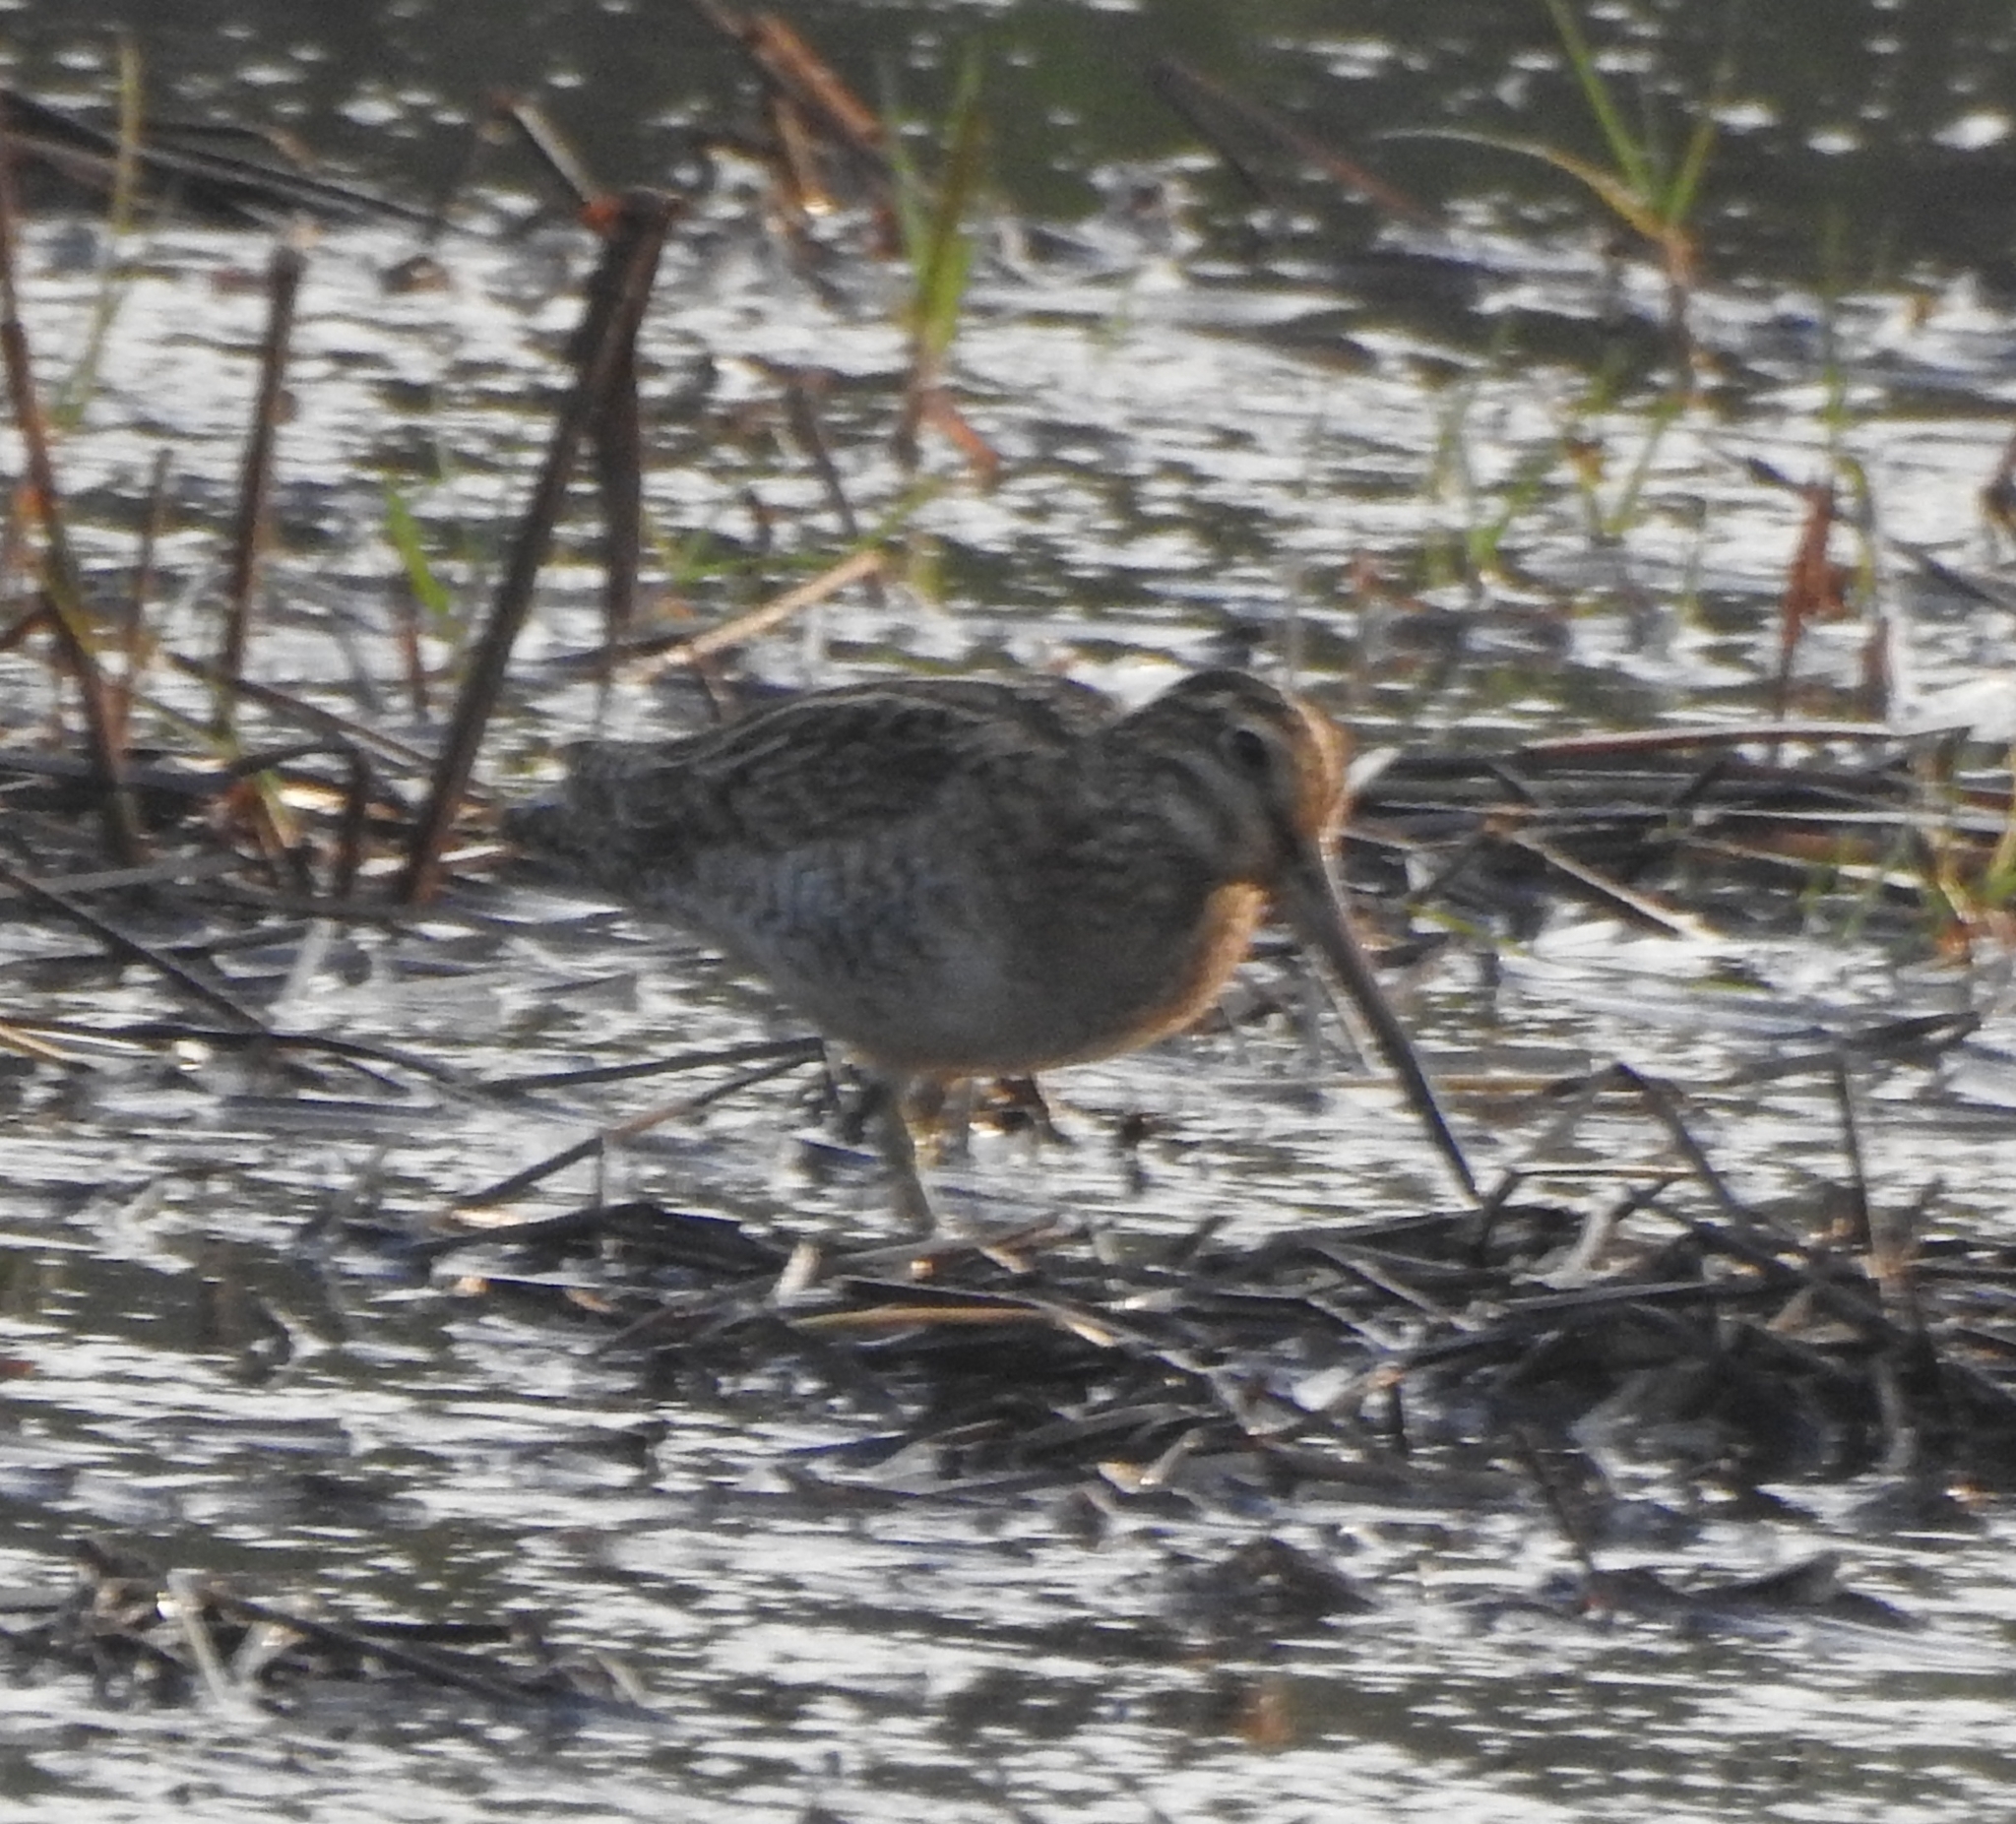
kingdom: Animalia
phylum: Chordata
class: Aves
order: Charadriiformes
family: Scolopacidae
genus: Gallinago
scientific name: Gallinago stenura
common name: Pin-tailed snipe
